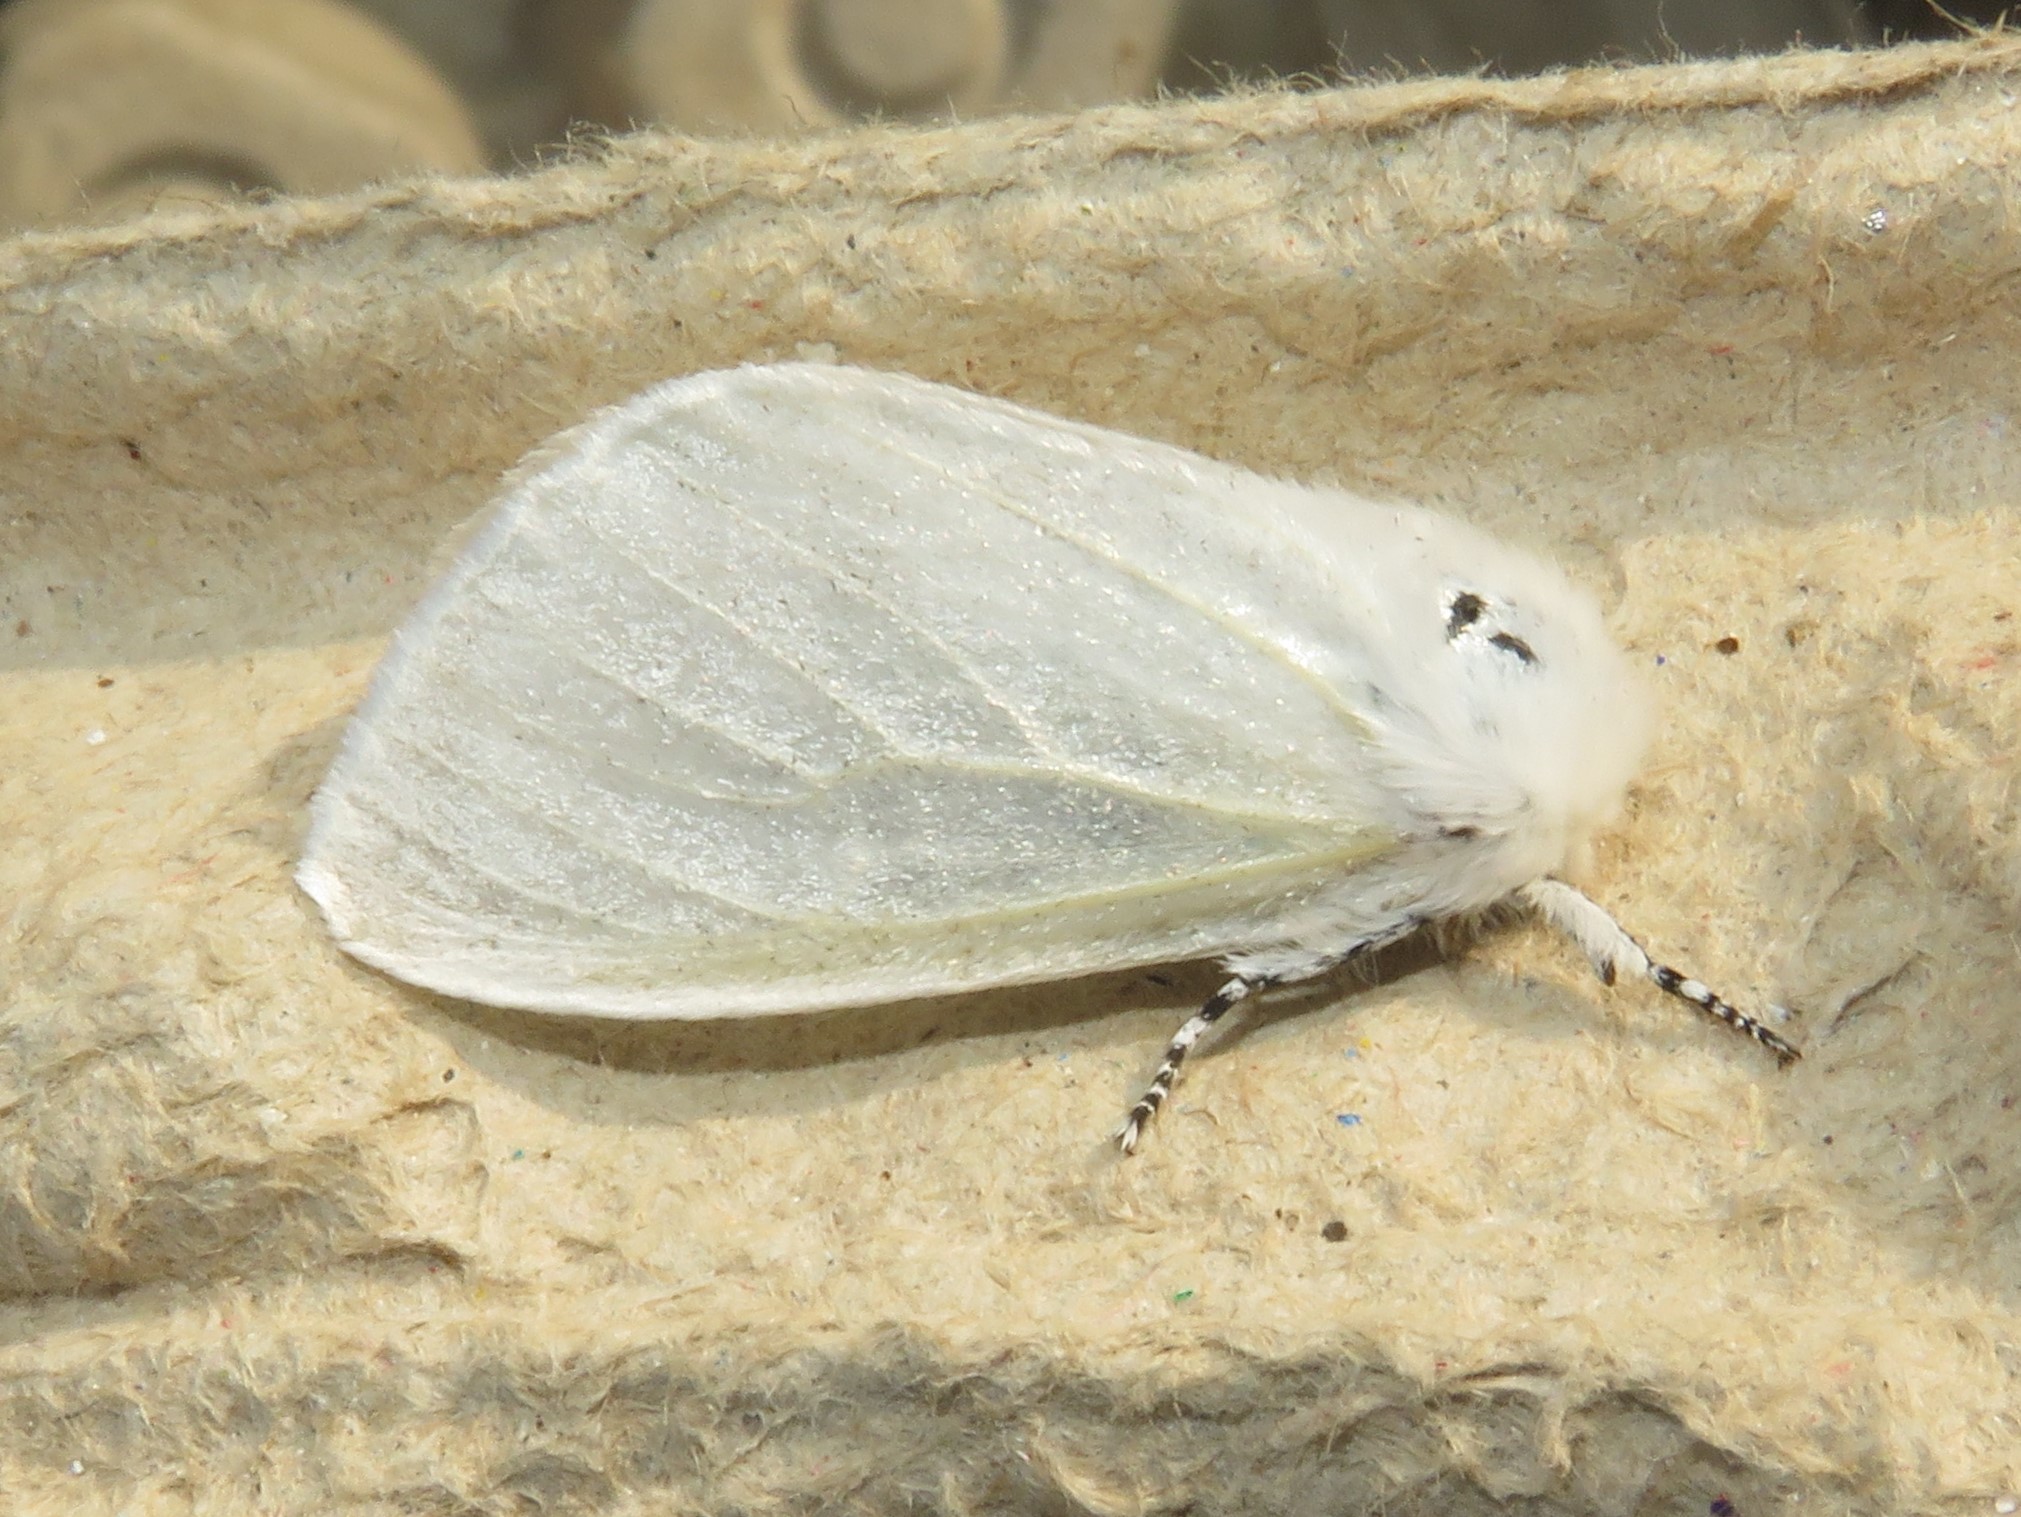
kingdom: Animalia
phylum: Arthropoda
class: Insecta
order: Lepidoptera
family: Erebidae
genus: Leucoma
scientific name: Leucoma salicis
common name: White satin moth
